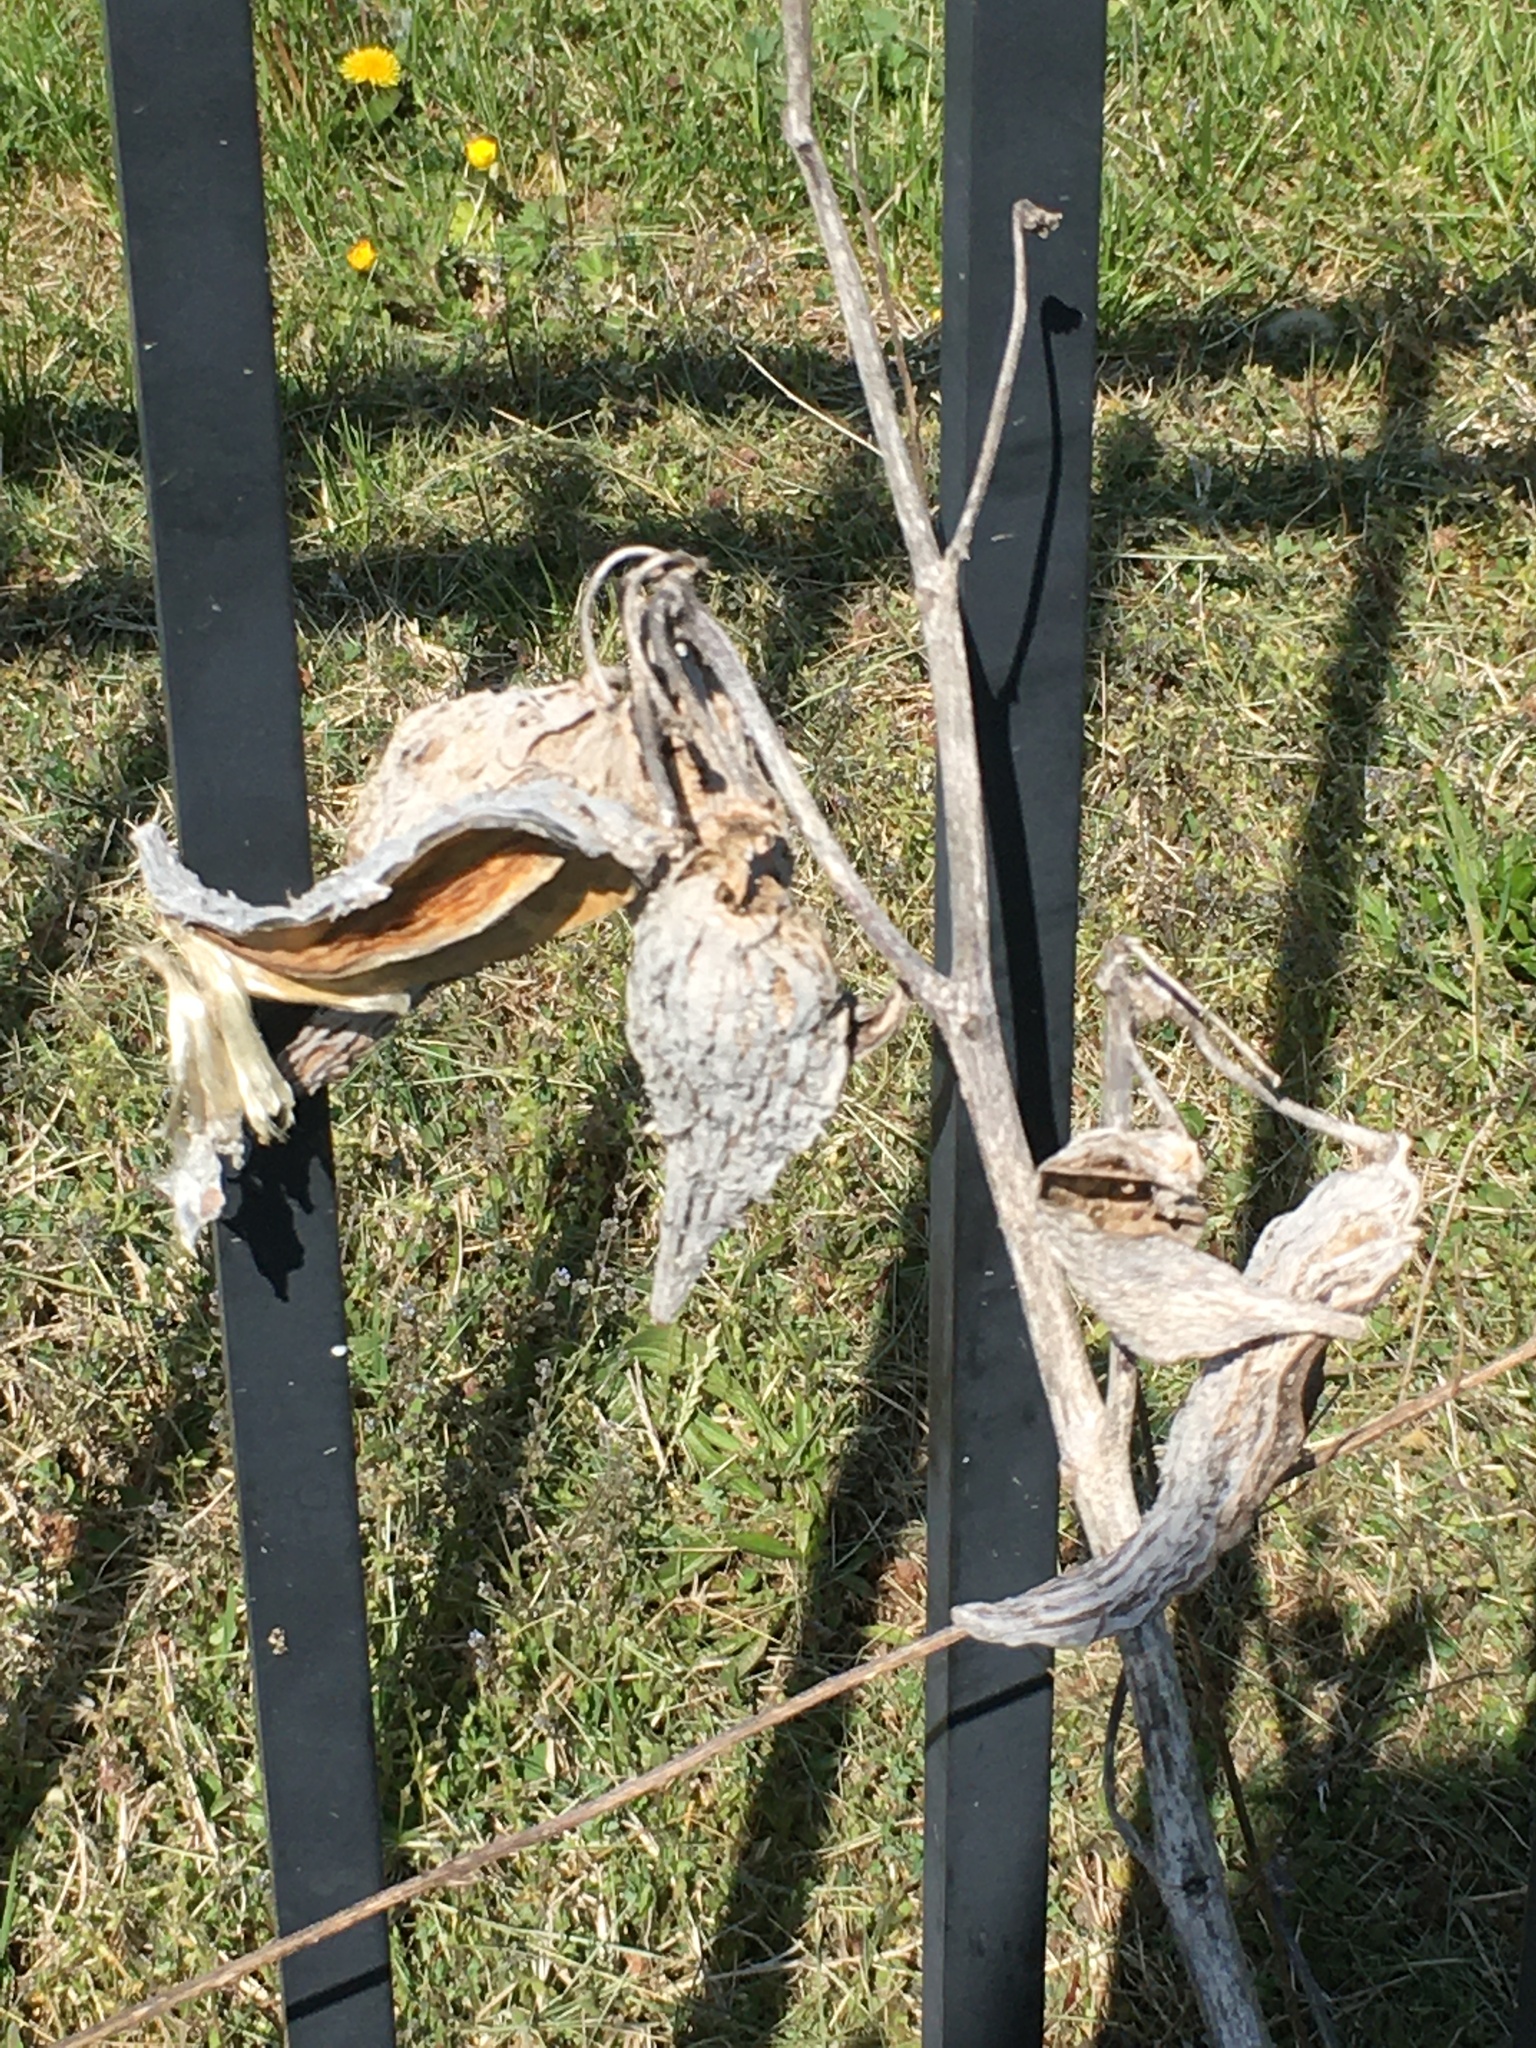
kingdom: Plantae
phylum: Tracheophyta
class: Magnoliopsida
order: Gentianales
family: Apocynaceae
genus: Asclepias
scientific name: Asclepias syriaca
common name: Common milkweed
